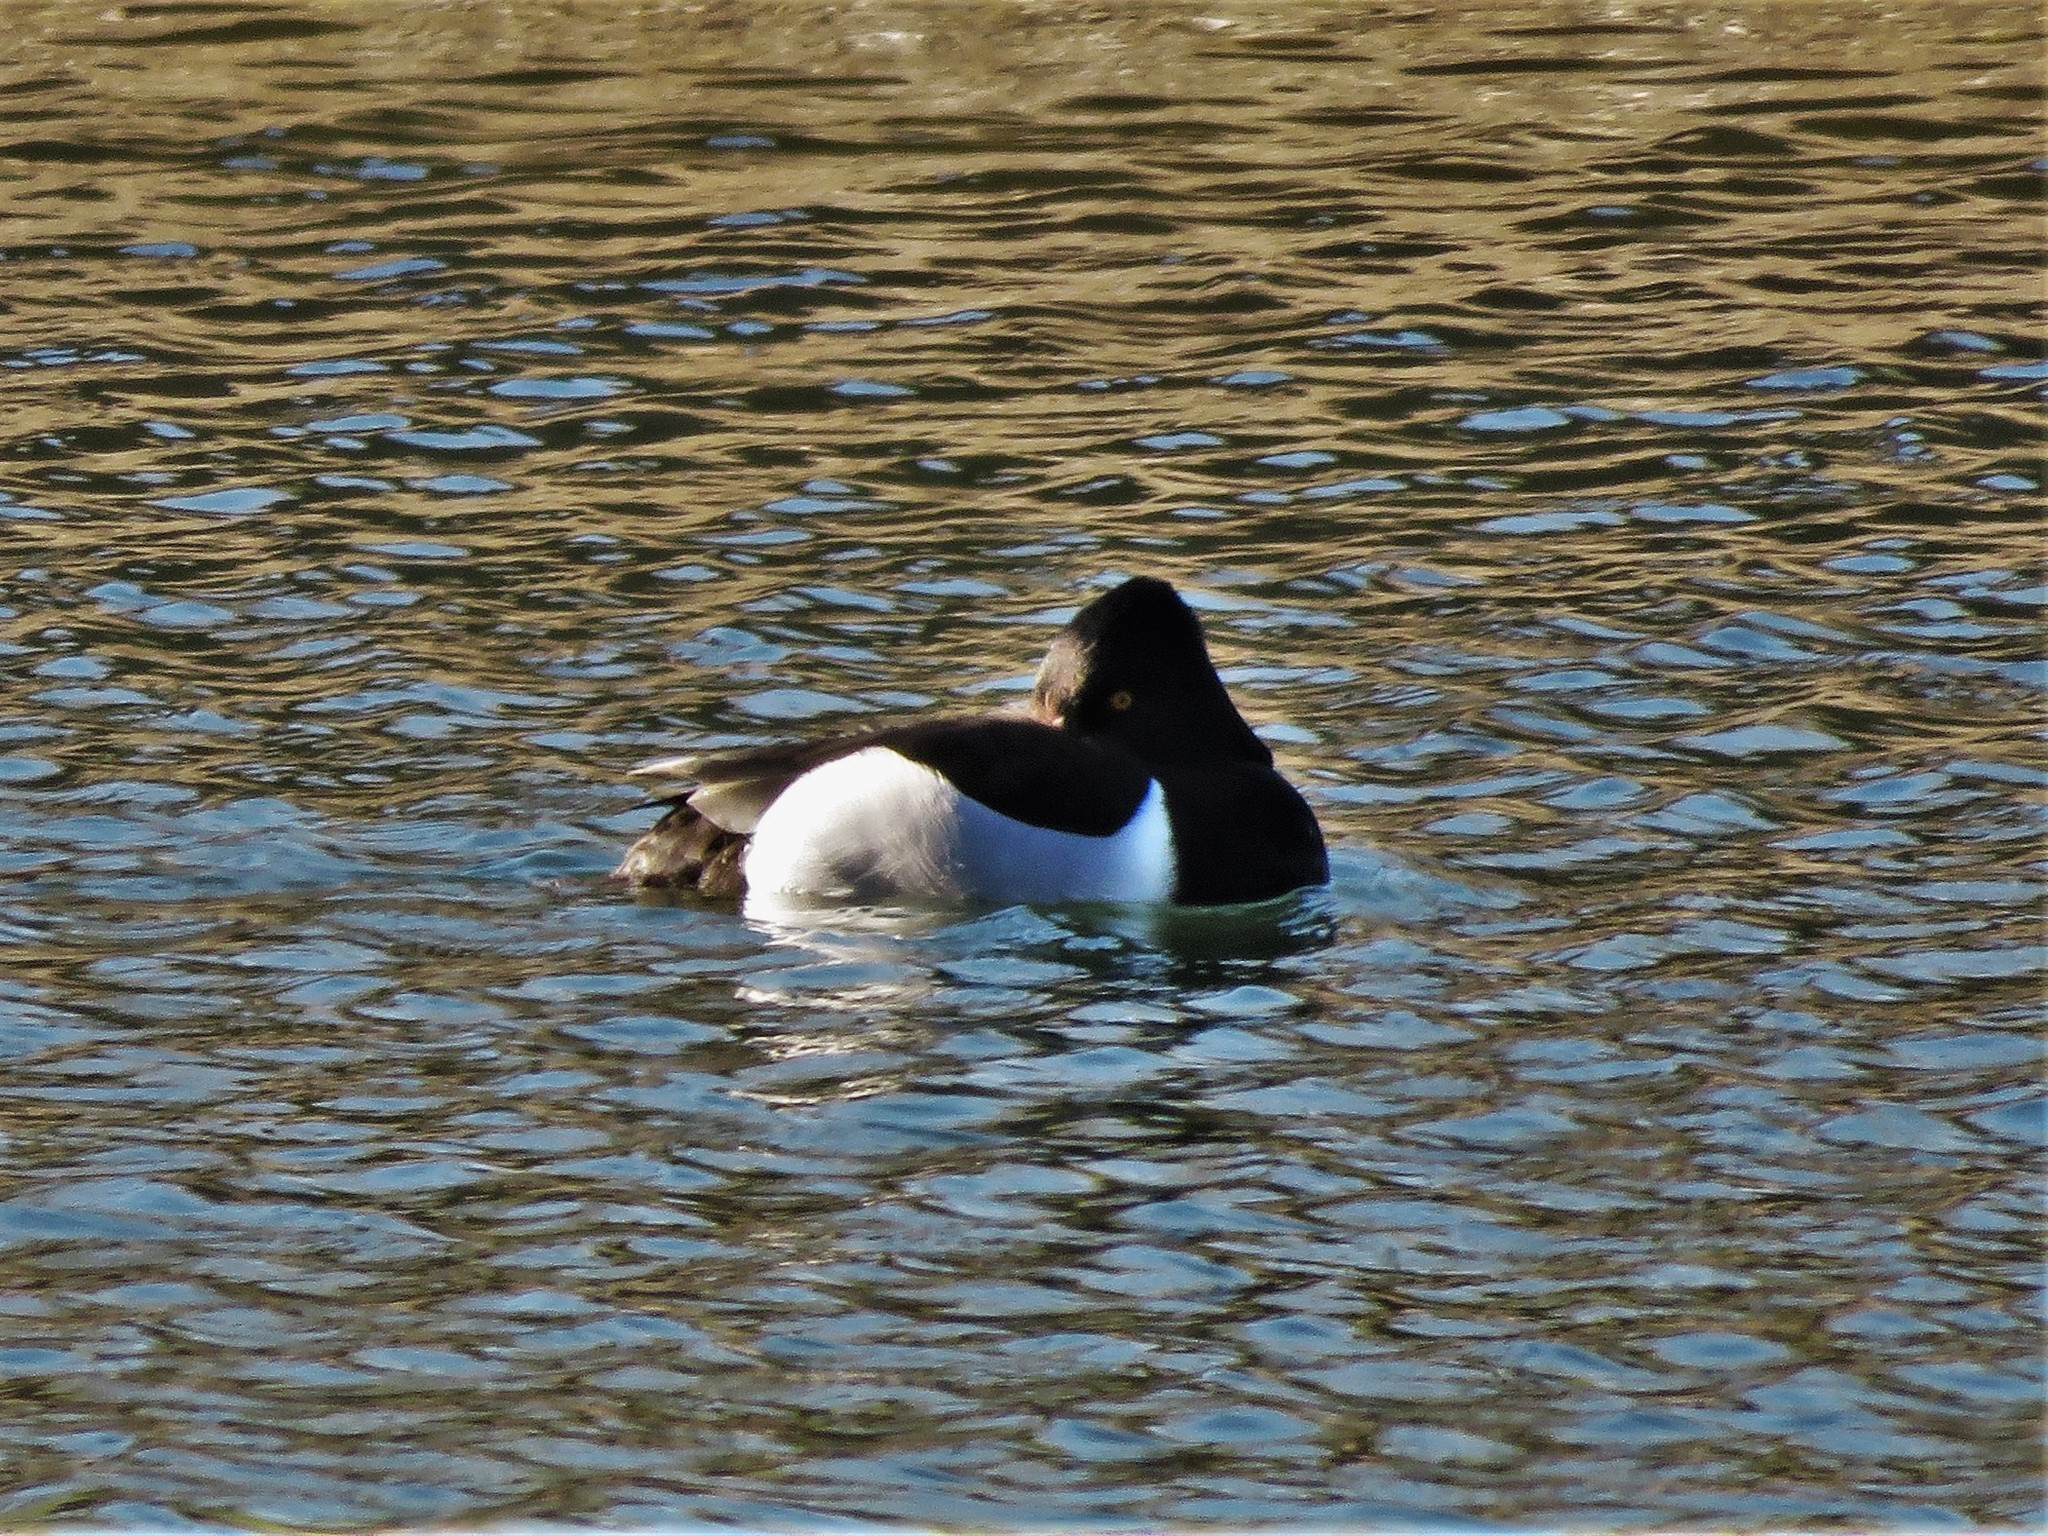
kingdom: Animalia
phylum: Chordata
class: Aves
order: Anseriformes
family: Anatidae
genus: Aythya
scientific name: Aythya collaris
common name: Ring-necked duck
